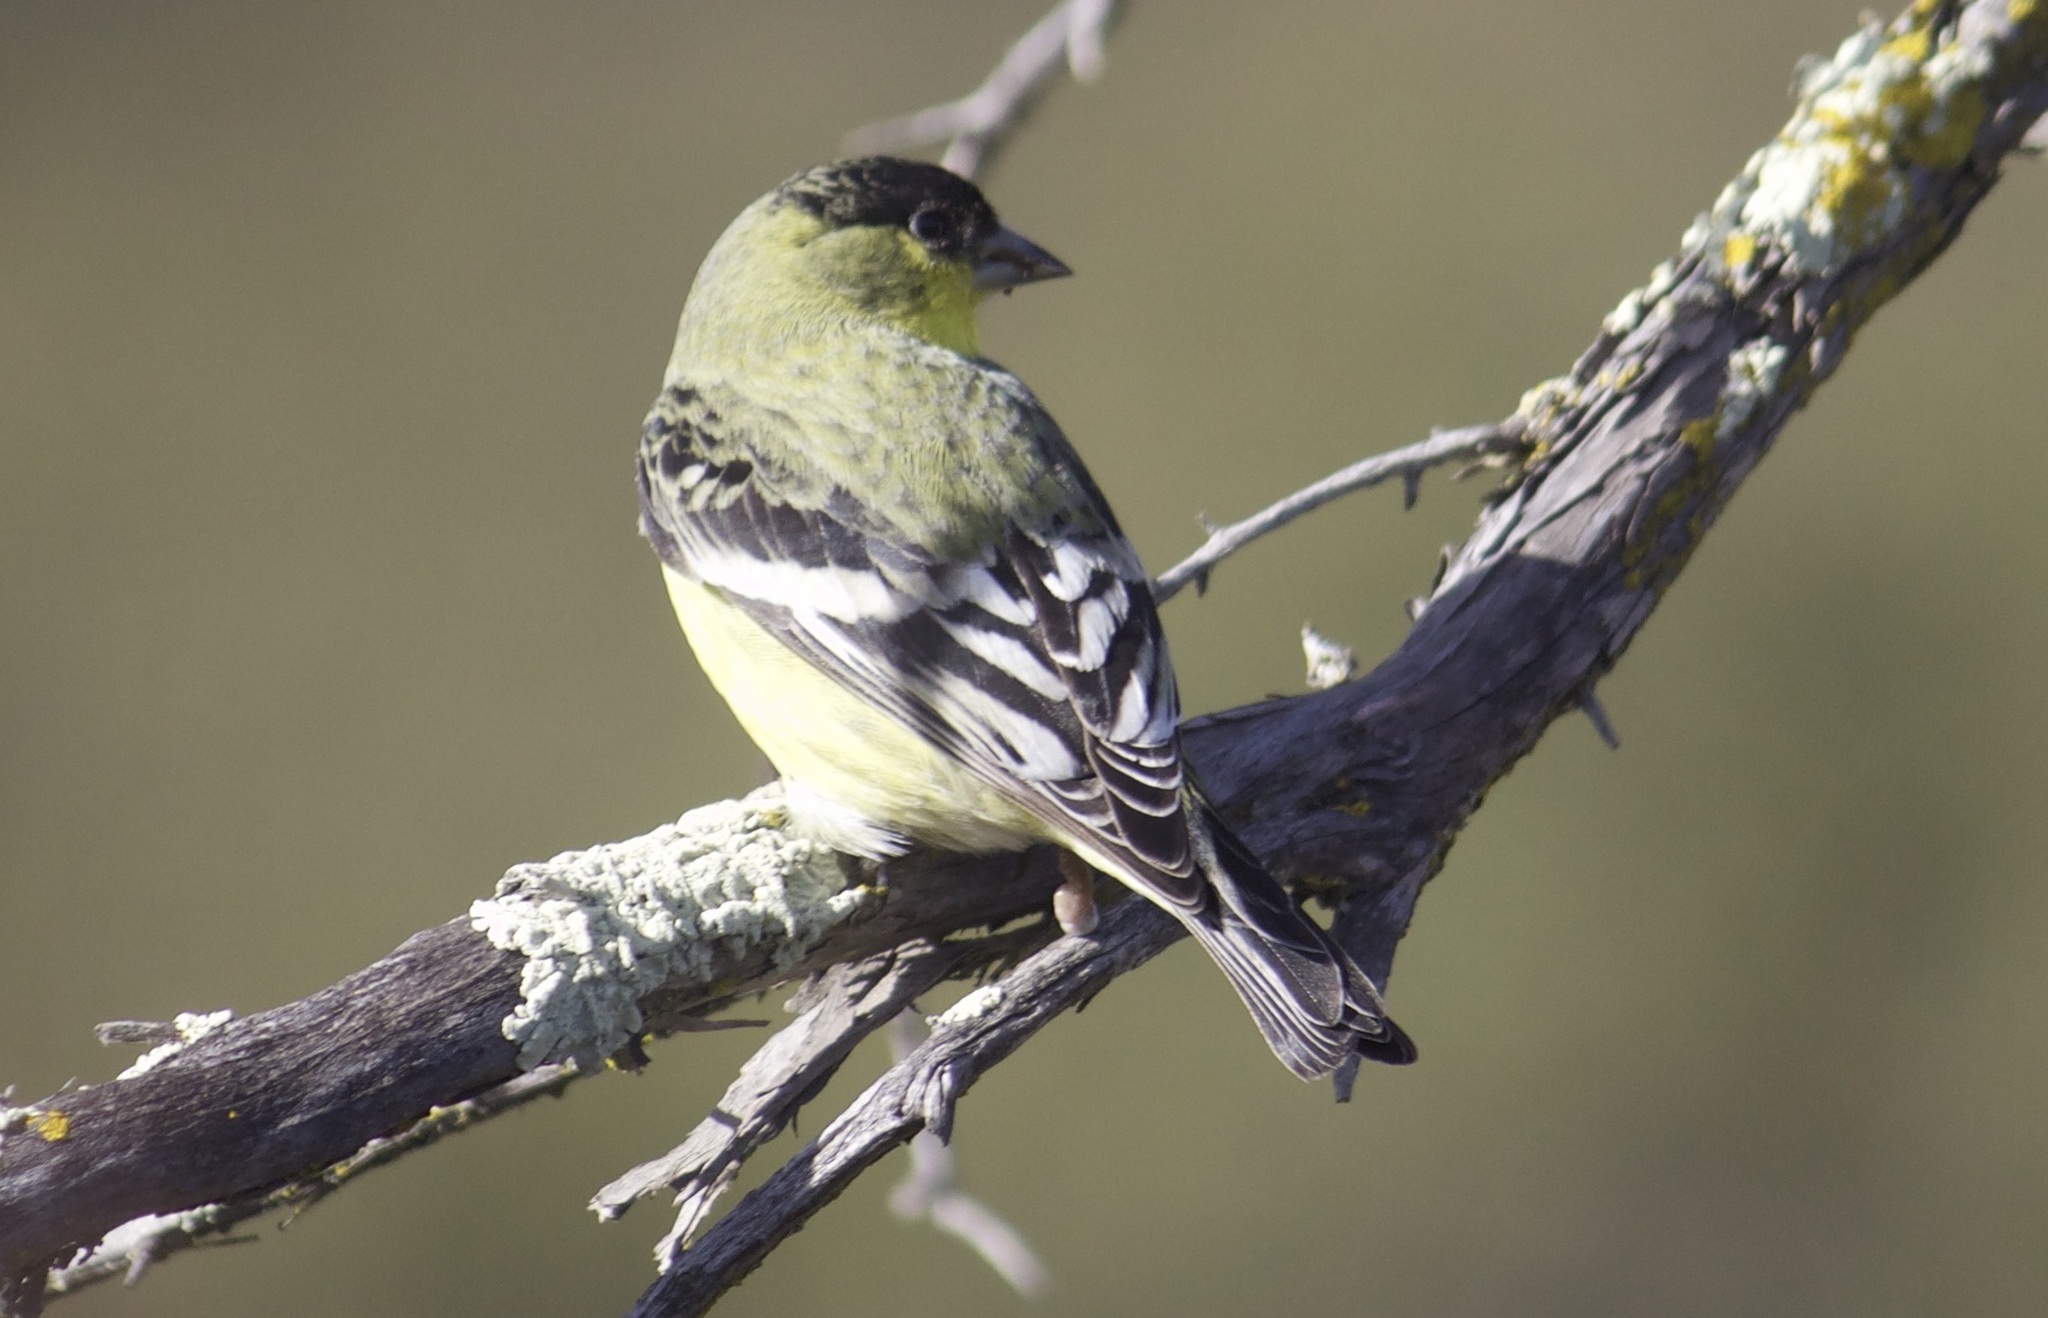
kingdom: Animalia
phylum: Chordata
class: Aves
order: Passeriformes
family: Fringillidae
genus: Spinus
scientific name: Spinus psaltria
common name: Lesser goldfinch
